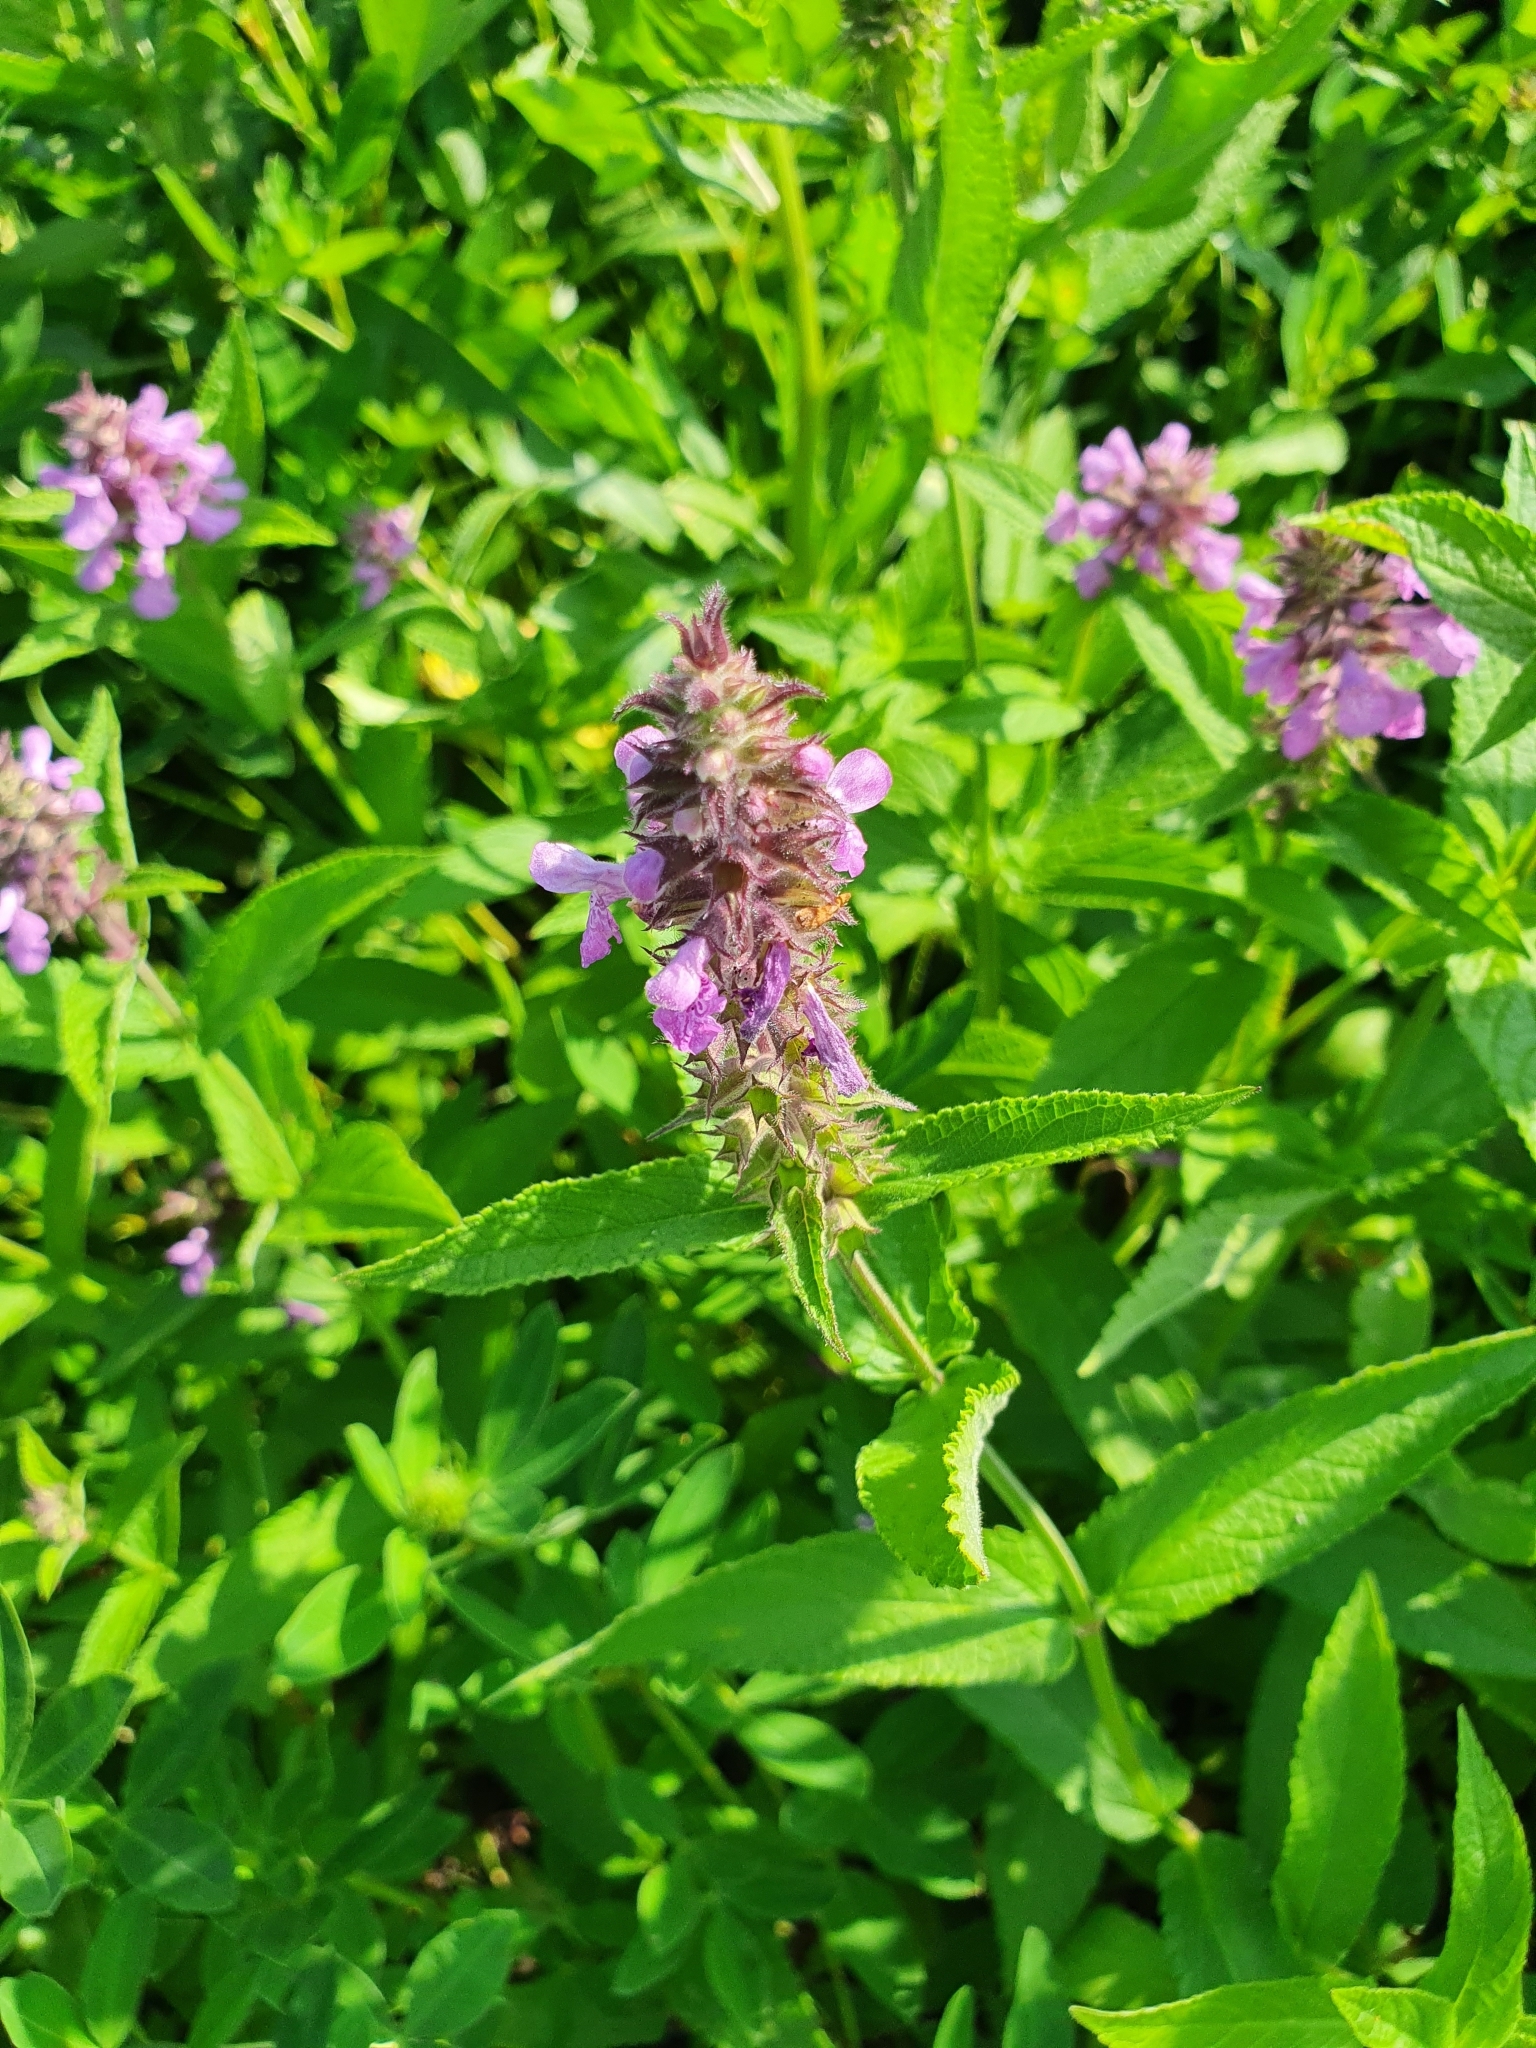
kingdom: Plantae
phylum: Tracheophyta
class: Magnoliopsida
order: Lamiales
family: Lamiaceae
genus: Stachys
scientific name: Stachys palustris
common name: Marsh woundwort
